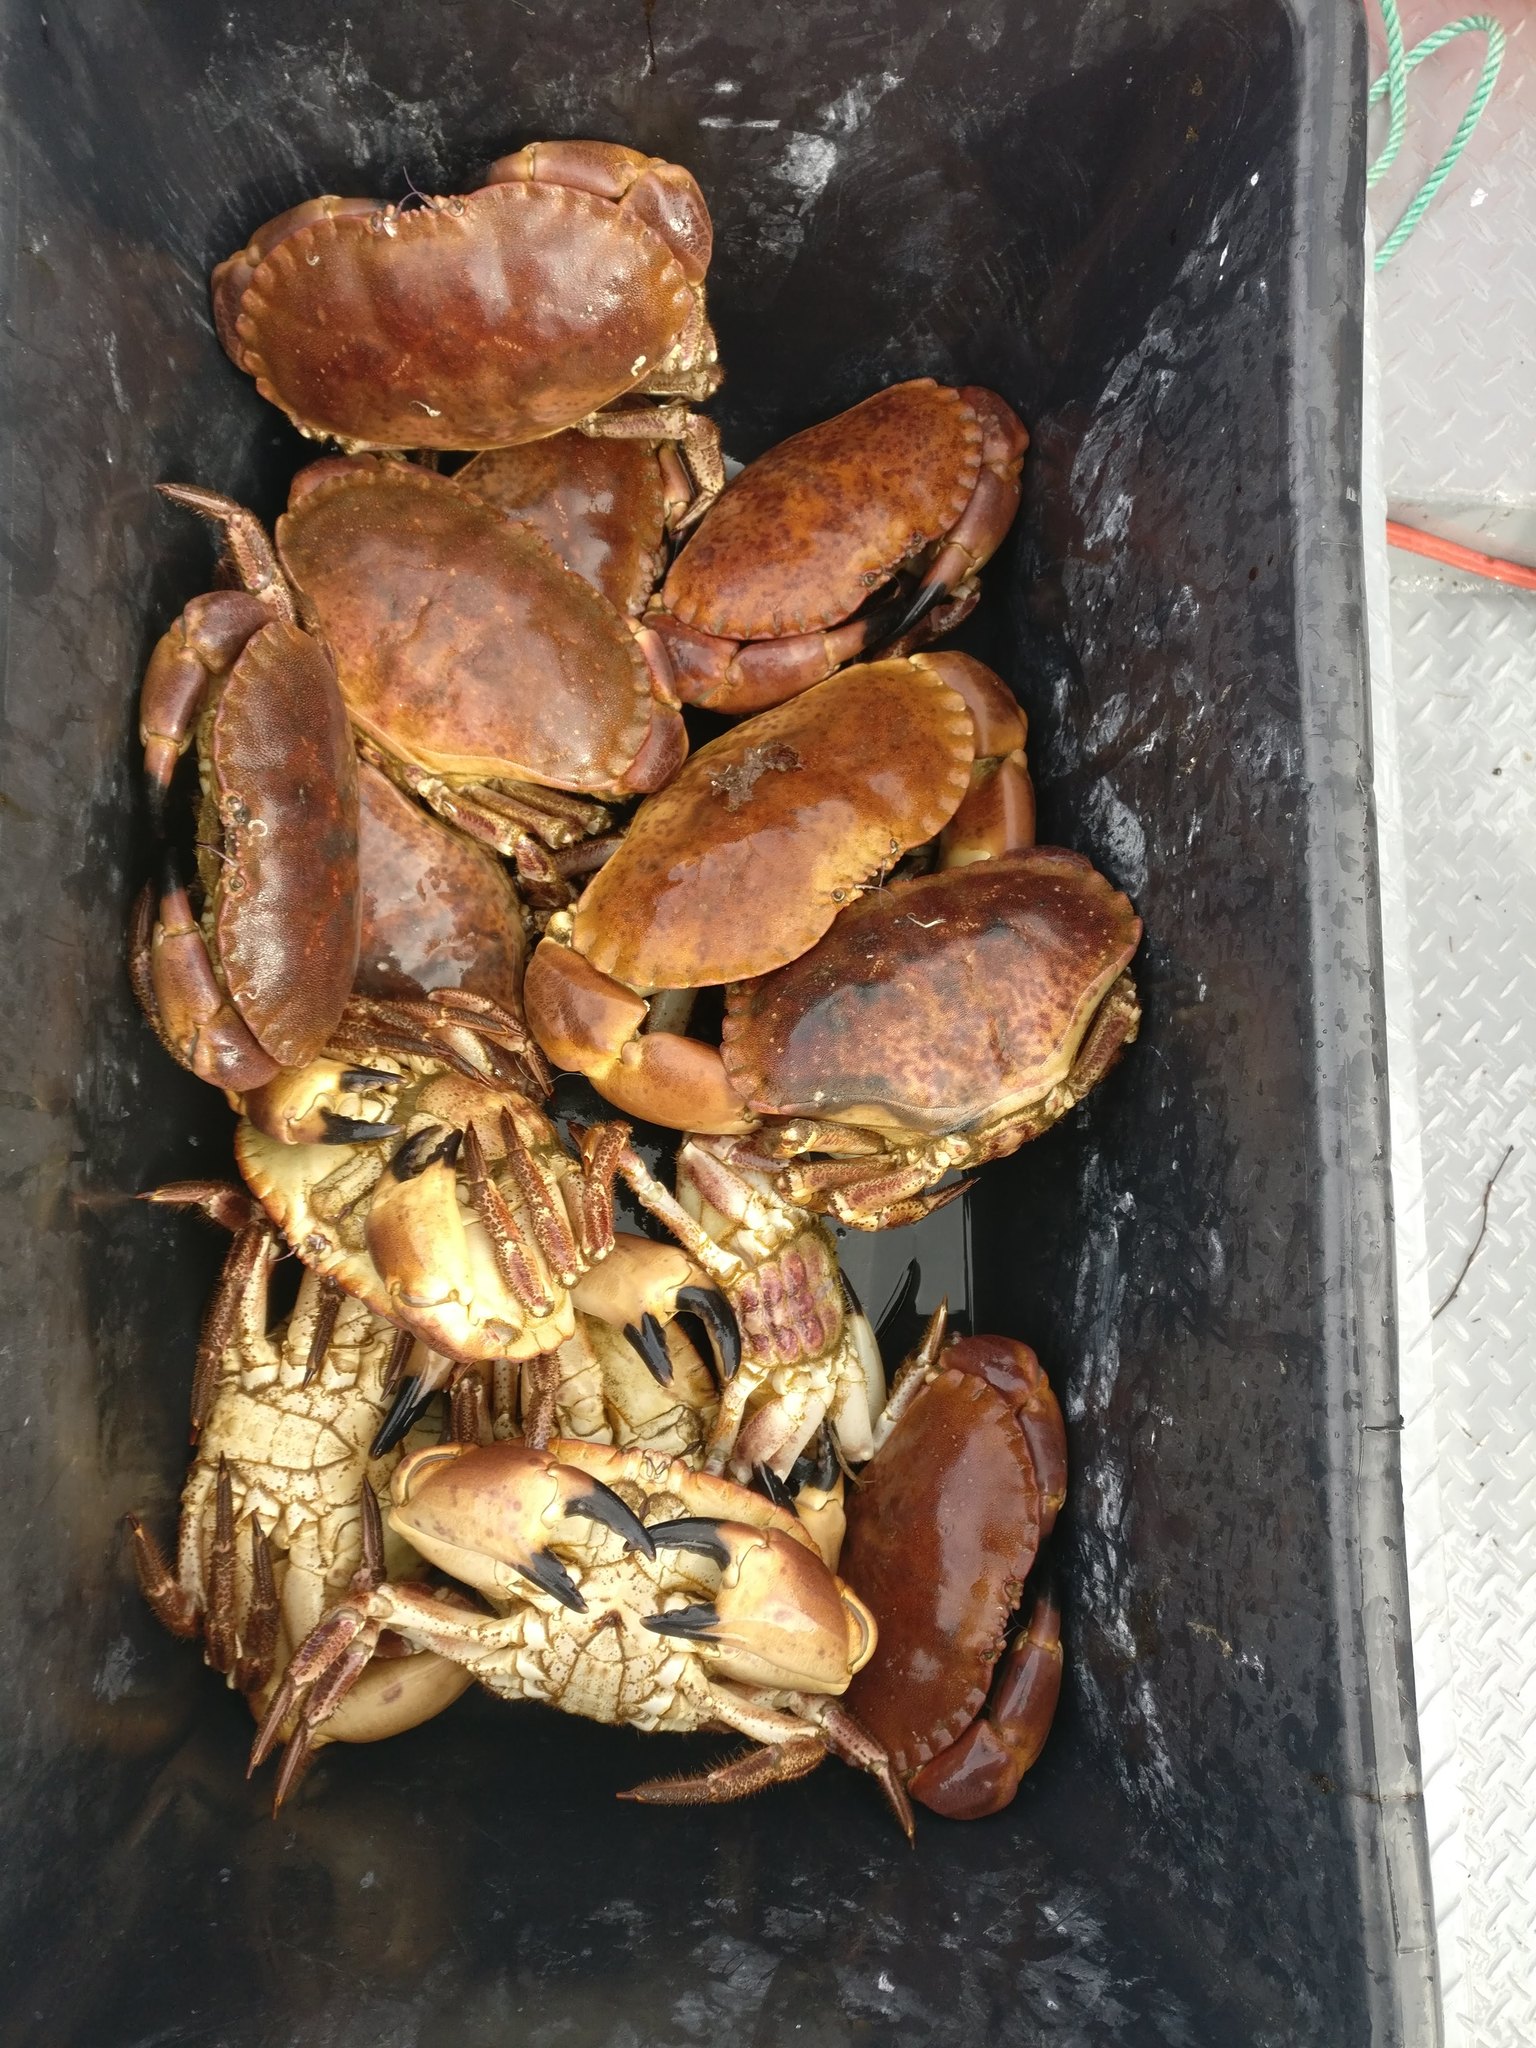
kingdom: Animalia
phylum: Arthropoda
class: Malacostraca
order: Decapoda
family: Cancridae
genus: Cancer
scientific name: Cancer pagurus
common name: Edible crab
